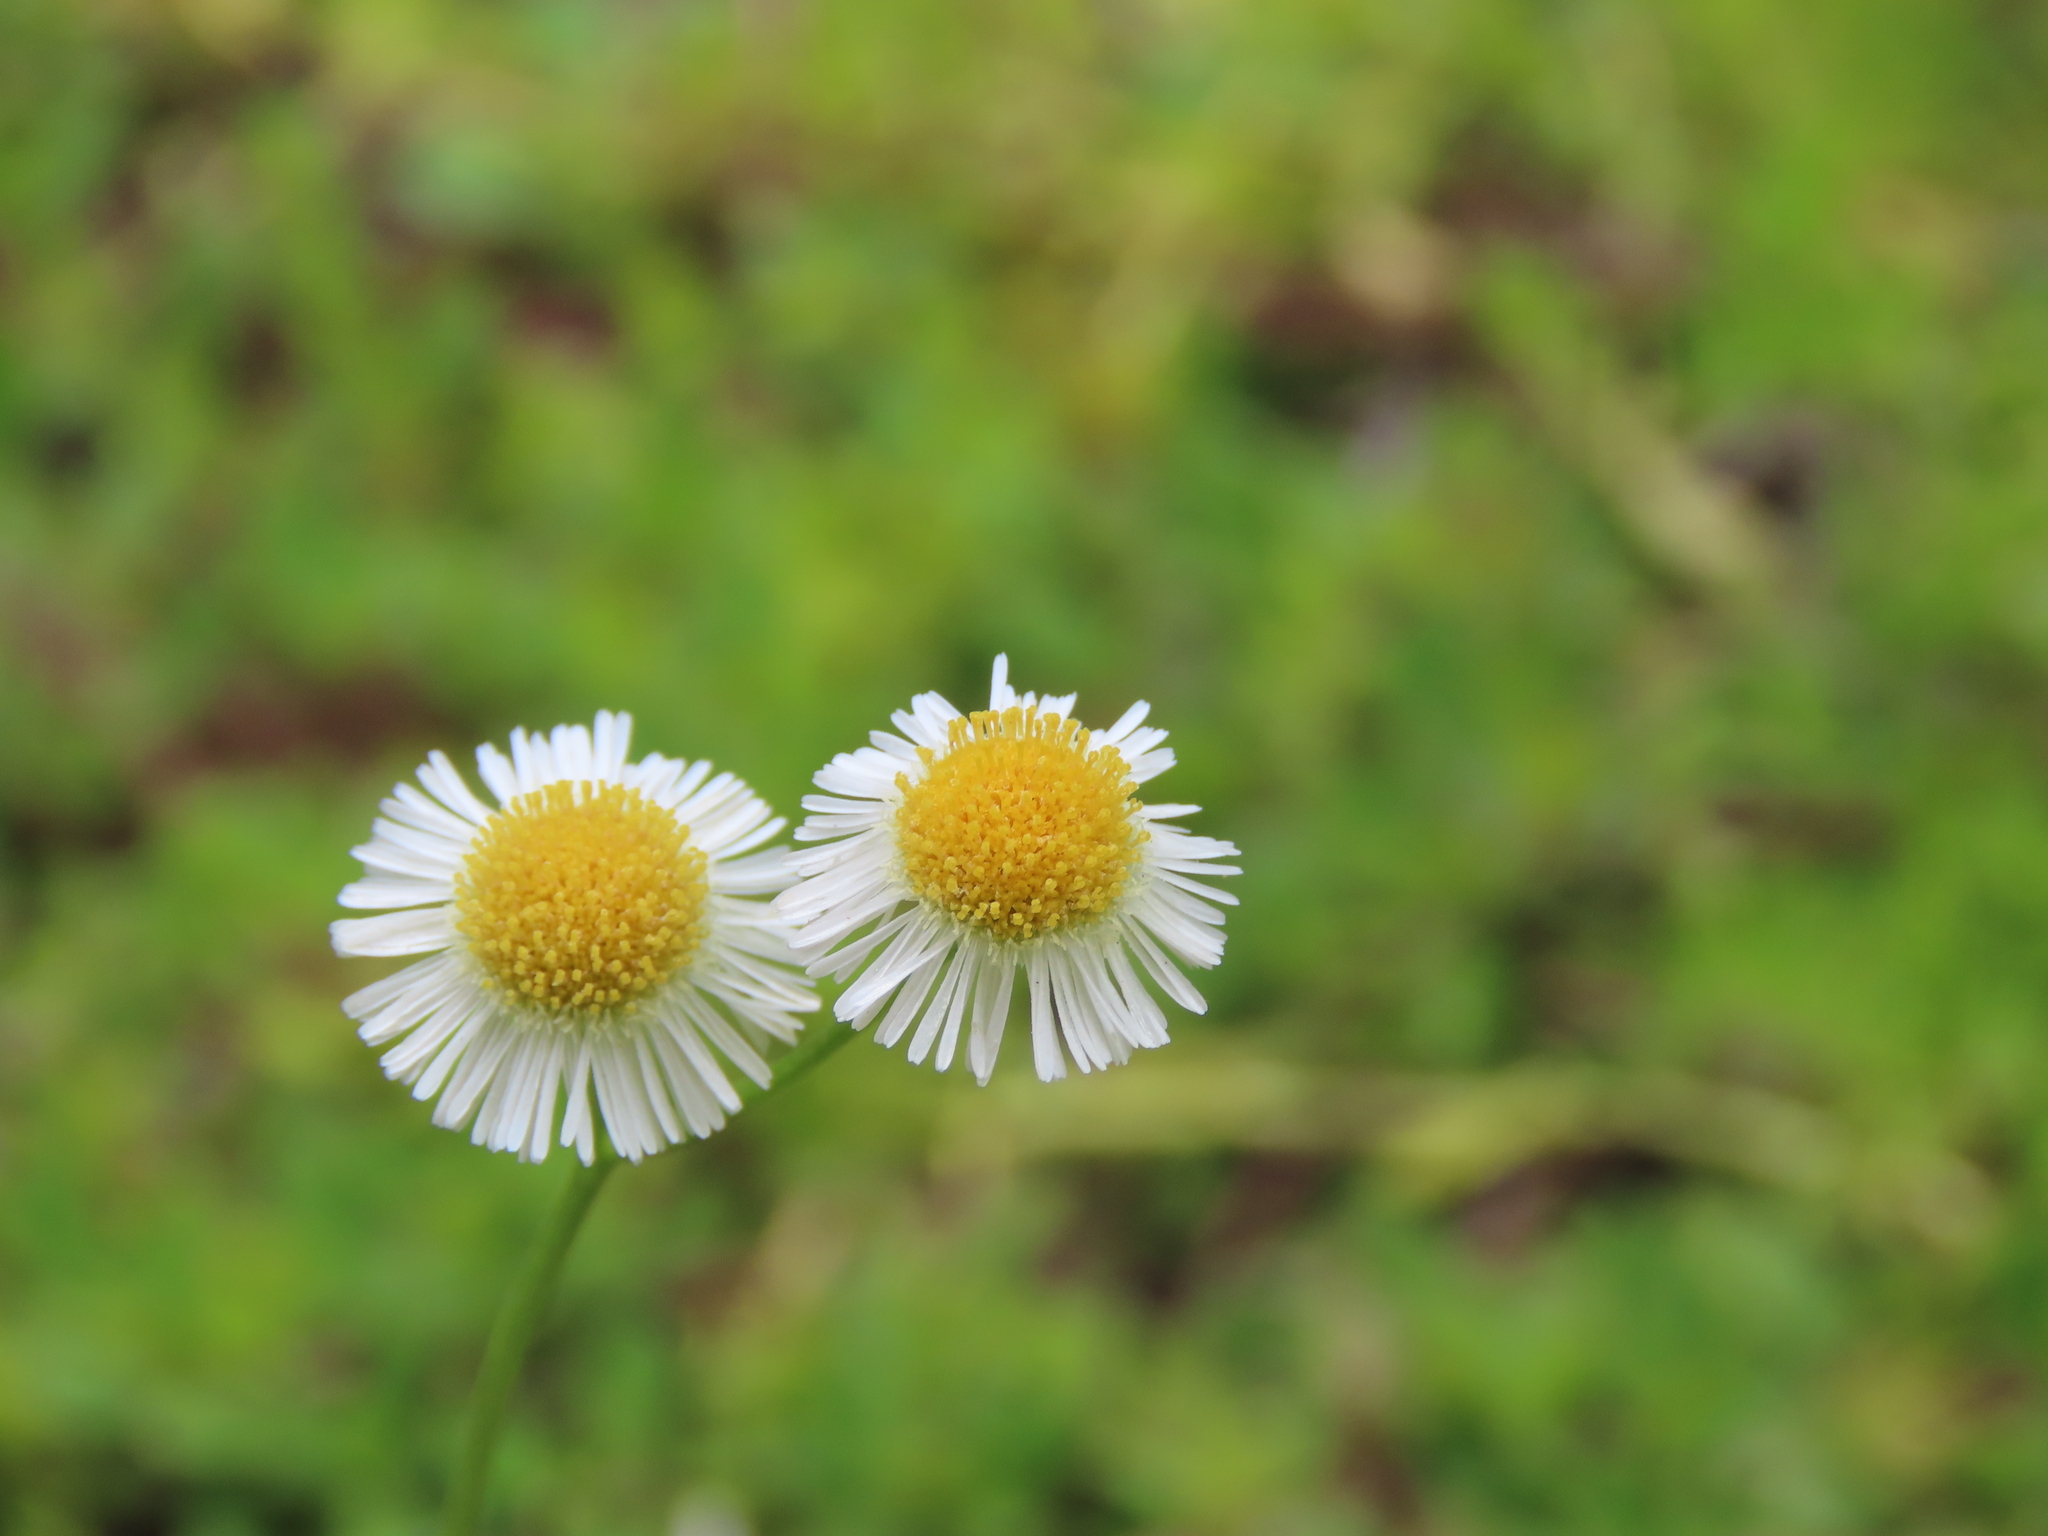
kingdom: Plantae
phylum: Tracheophyta
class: Magnoliopsida
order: Asterales
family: Asteraceae
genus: Erigeron
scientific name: Erigeron quercifolius
